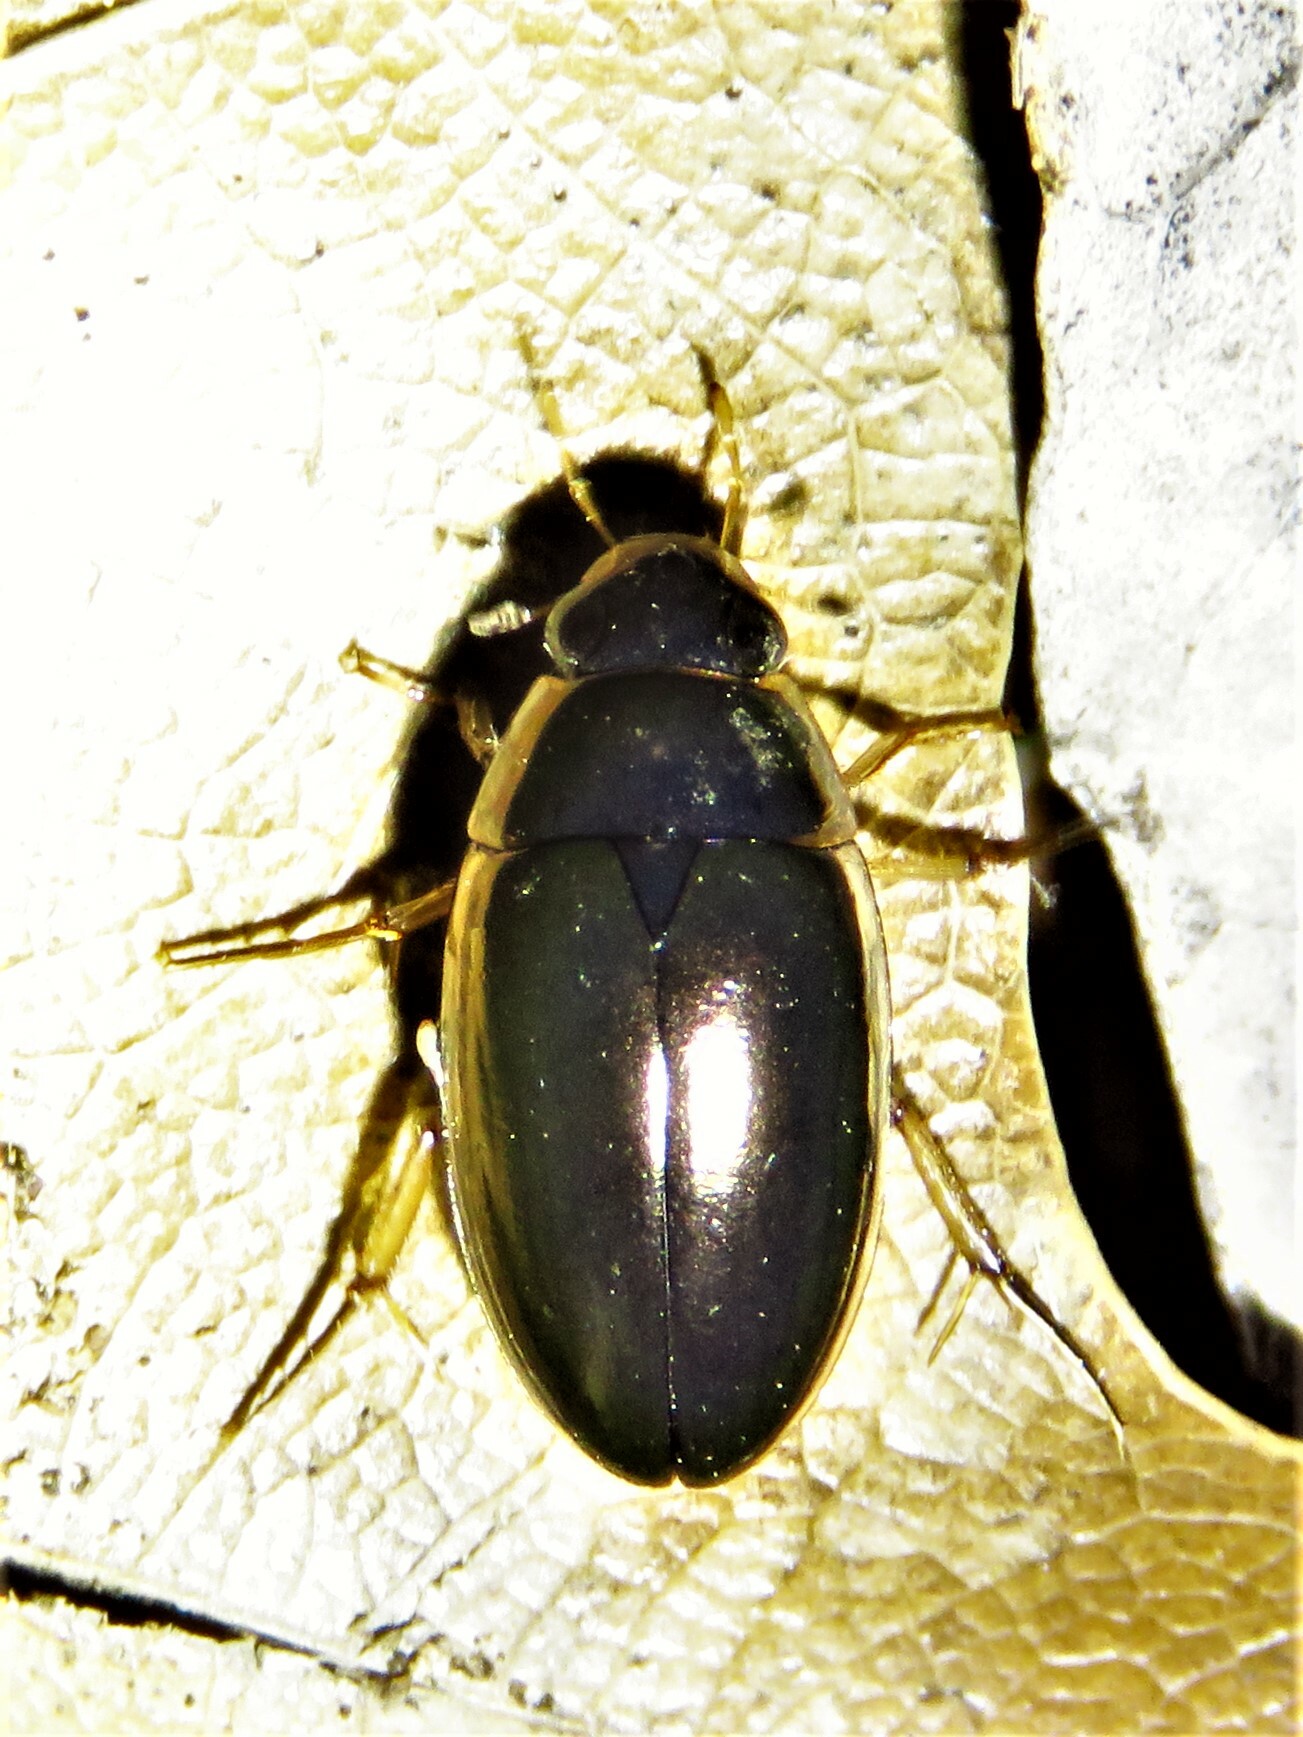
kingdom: Animalia
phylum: Arthropoda
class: Insecta
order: Coleoptera
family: Hydrophilidae
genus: Tropisternus
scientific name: Tropisternus lateralis
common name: Lateral-banded water scavenger beetle
